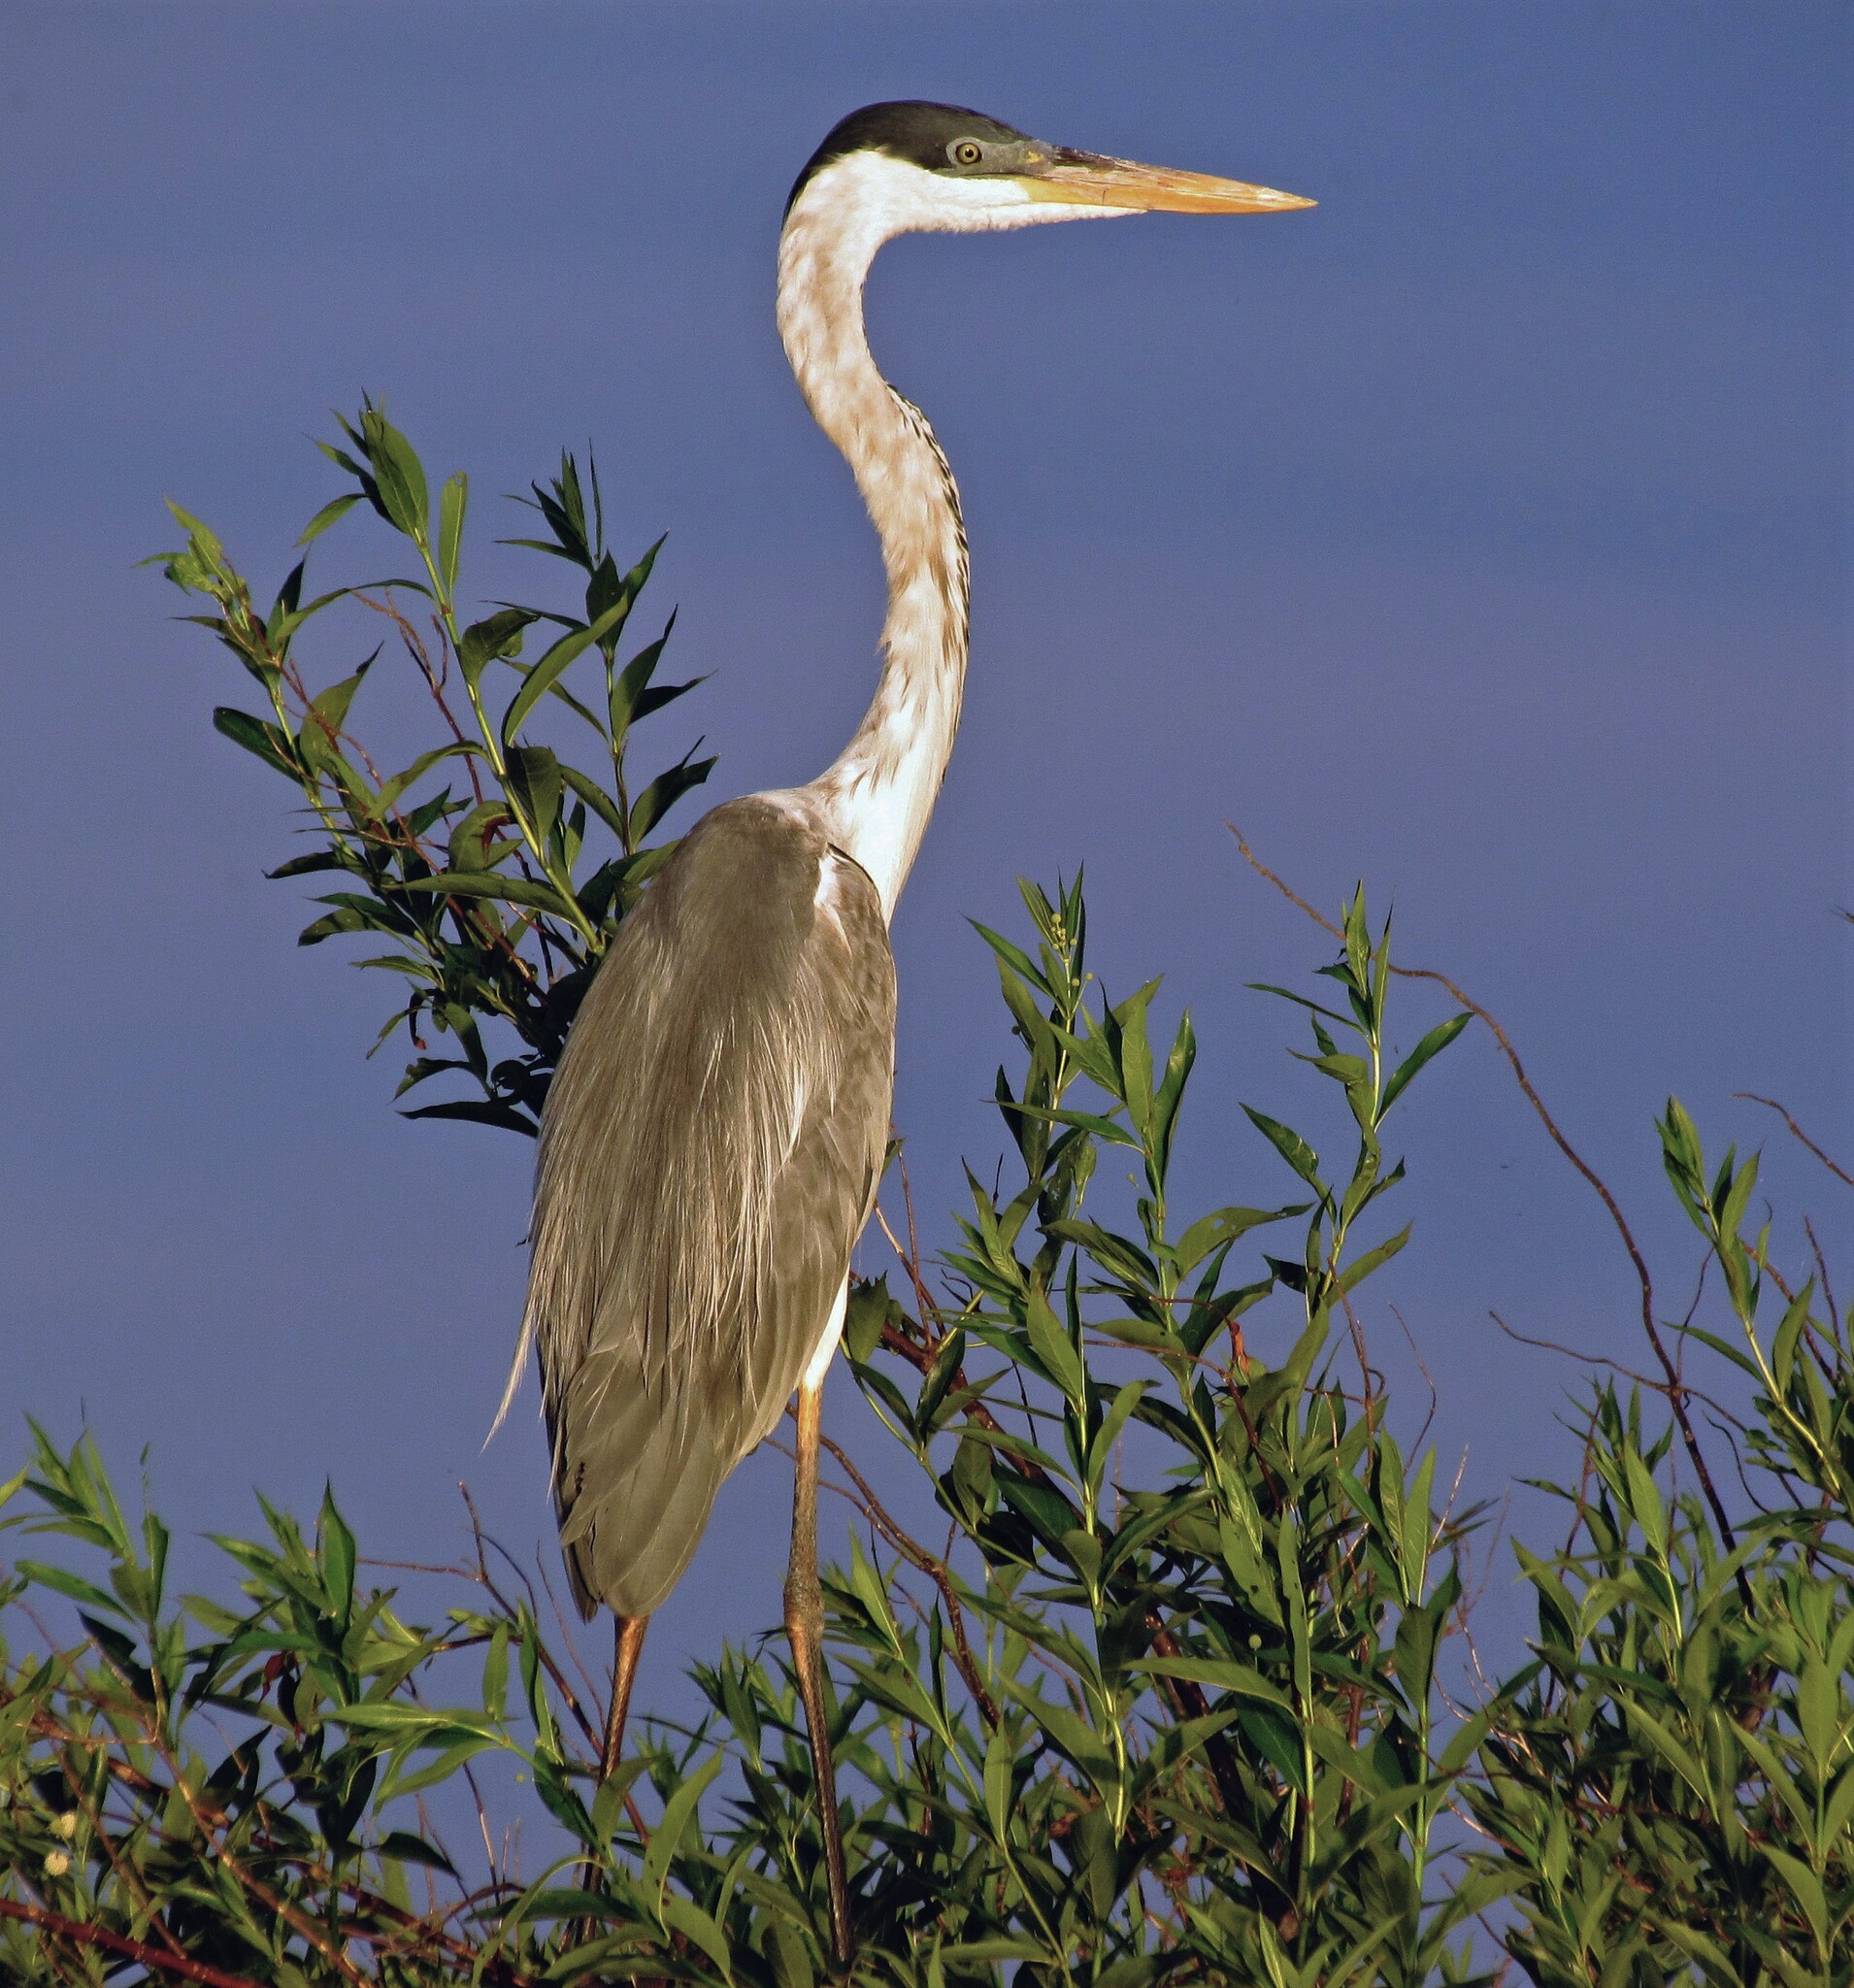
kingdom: Animalia
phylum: Chordata
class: Aves
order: Pelecaniformes
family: Ardeidae
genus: Ardea
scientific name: Ardea cocoi
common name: Cocoi heron
